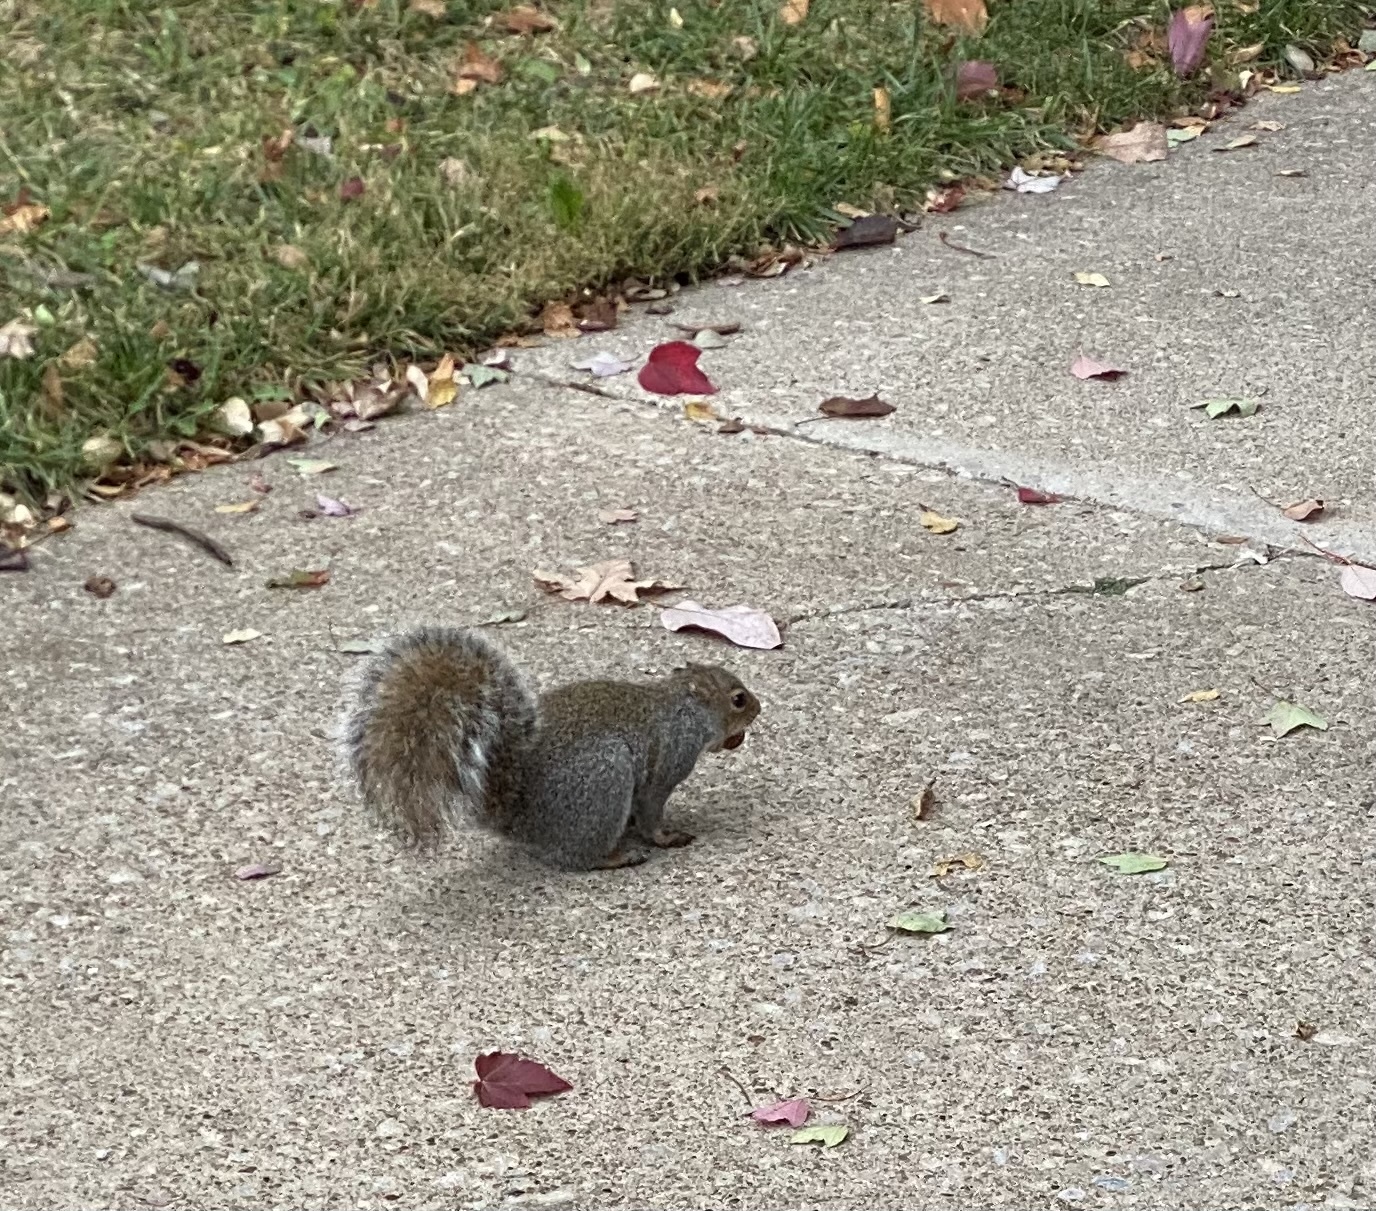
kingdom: Animalia
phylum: Chordata
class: Mammalia
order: Rodentia
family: Sciuridae
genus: Sciurus
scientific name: Sciurus carolinensis
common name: Eastern gray squirrel
